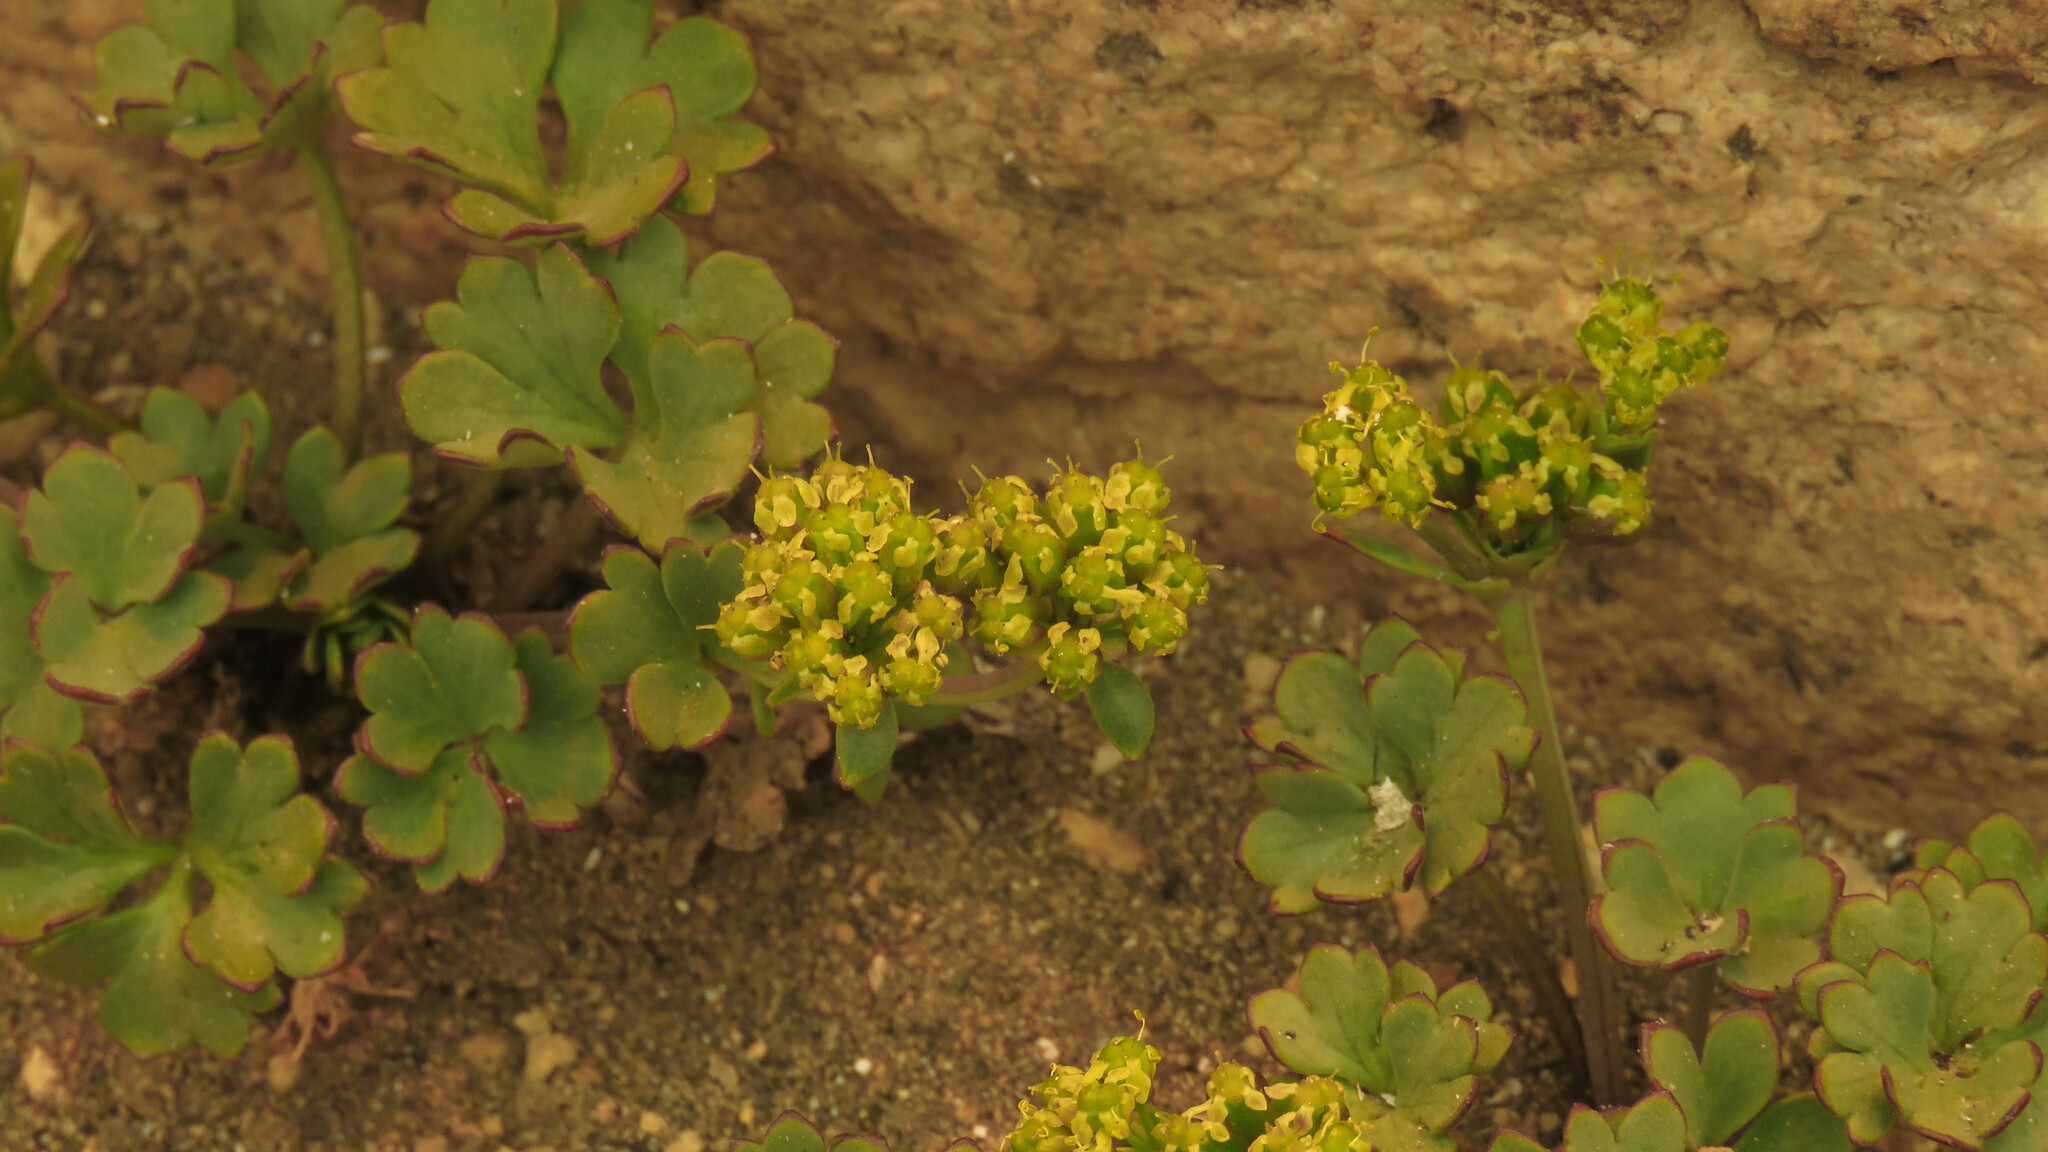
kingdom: Plantae
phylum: Tracheophyta
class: Magnoliopsida
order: Apiales
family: Apiaceae
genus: Azorella
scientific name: Azorella andina
